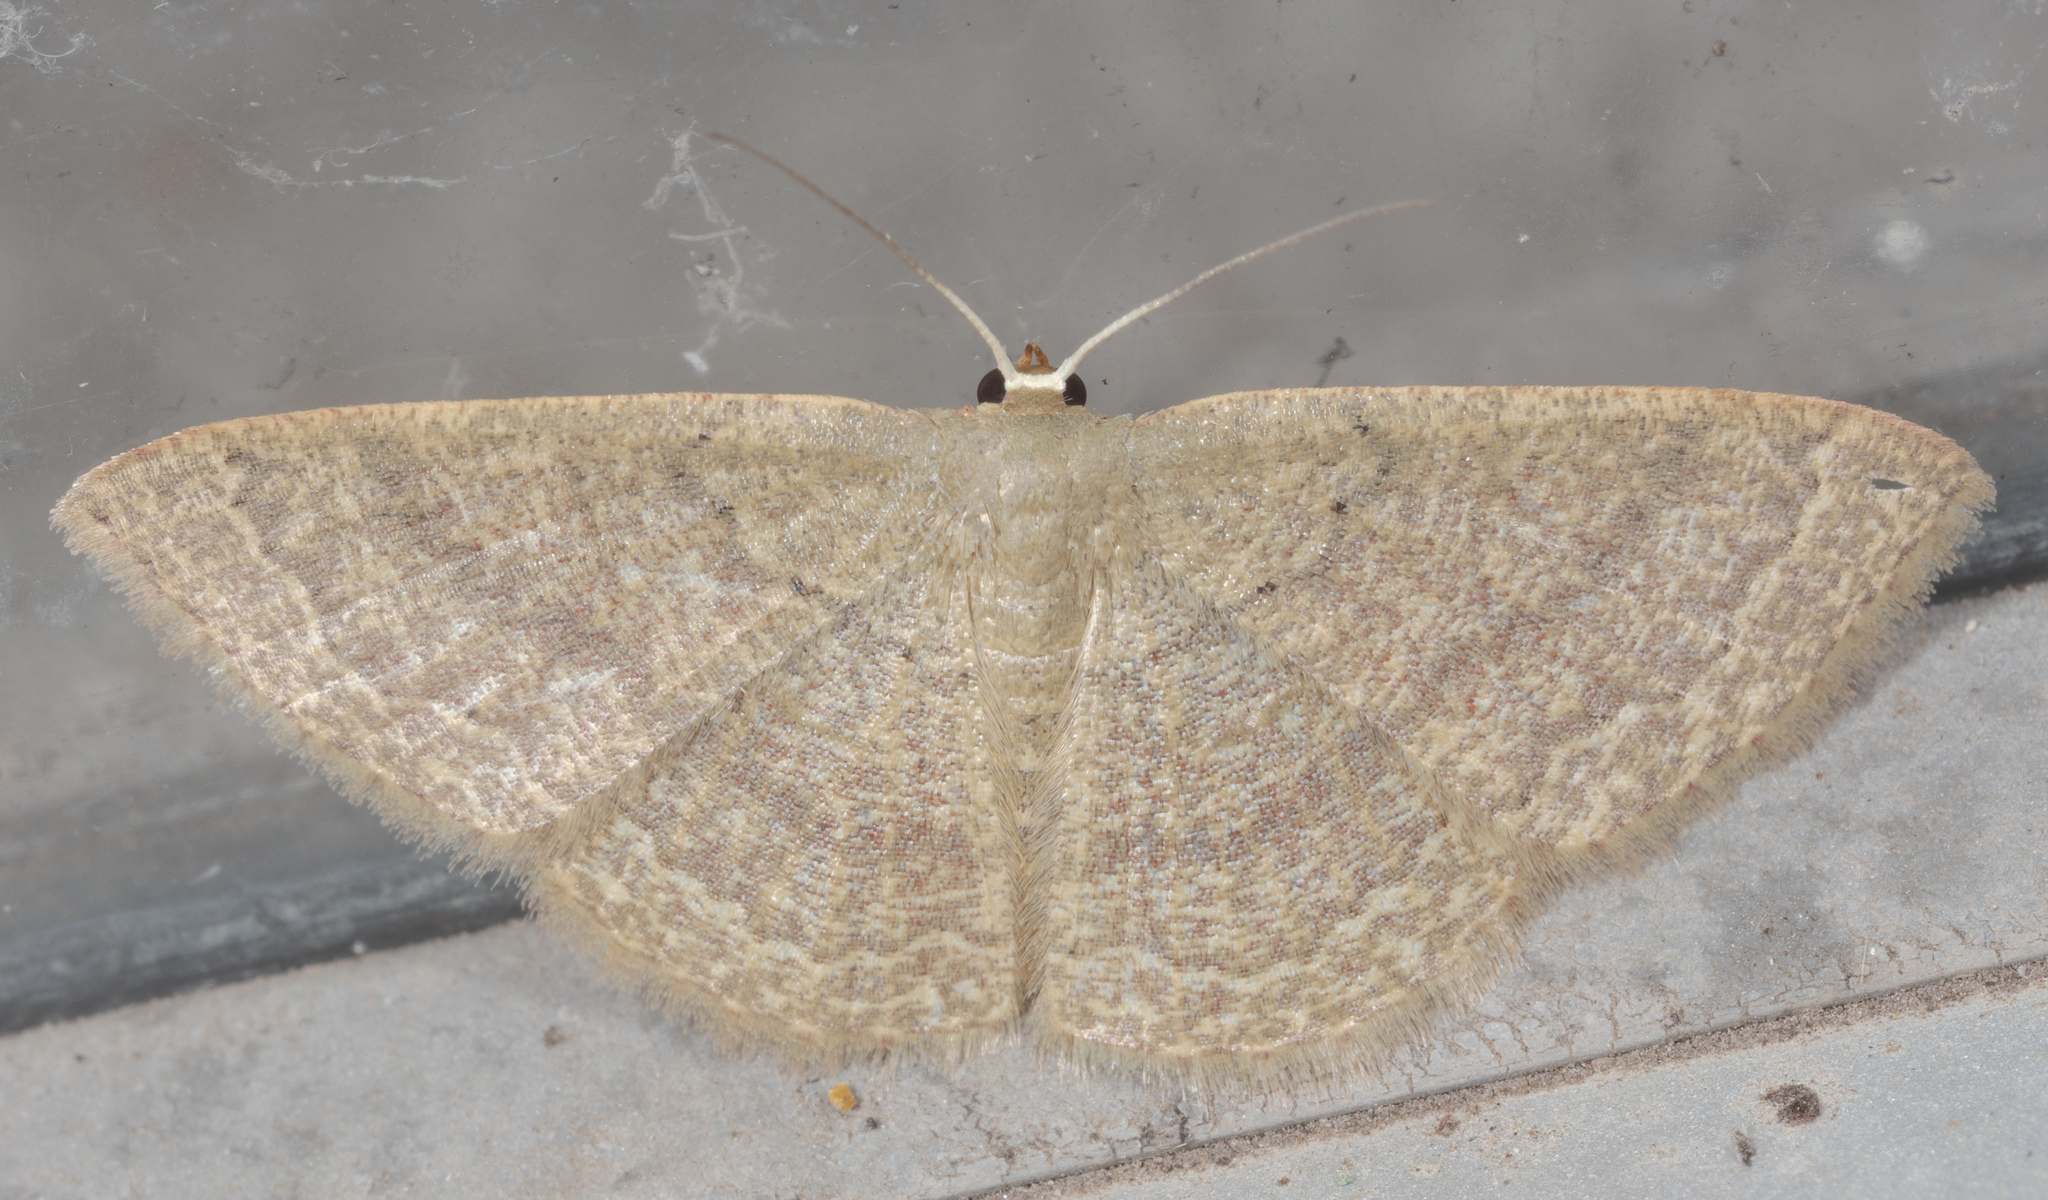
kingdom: Animalia
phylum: Arthropoda
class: Insecta
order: Lepidoptera
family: Geometridae
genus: Pleuroprucha
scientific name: Pleuroprucha insulsaria
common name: Common tan wave
